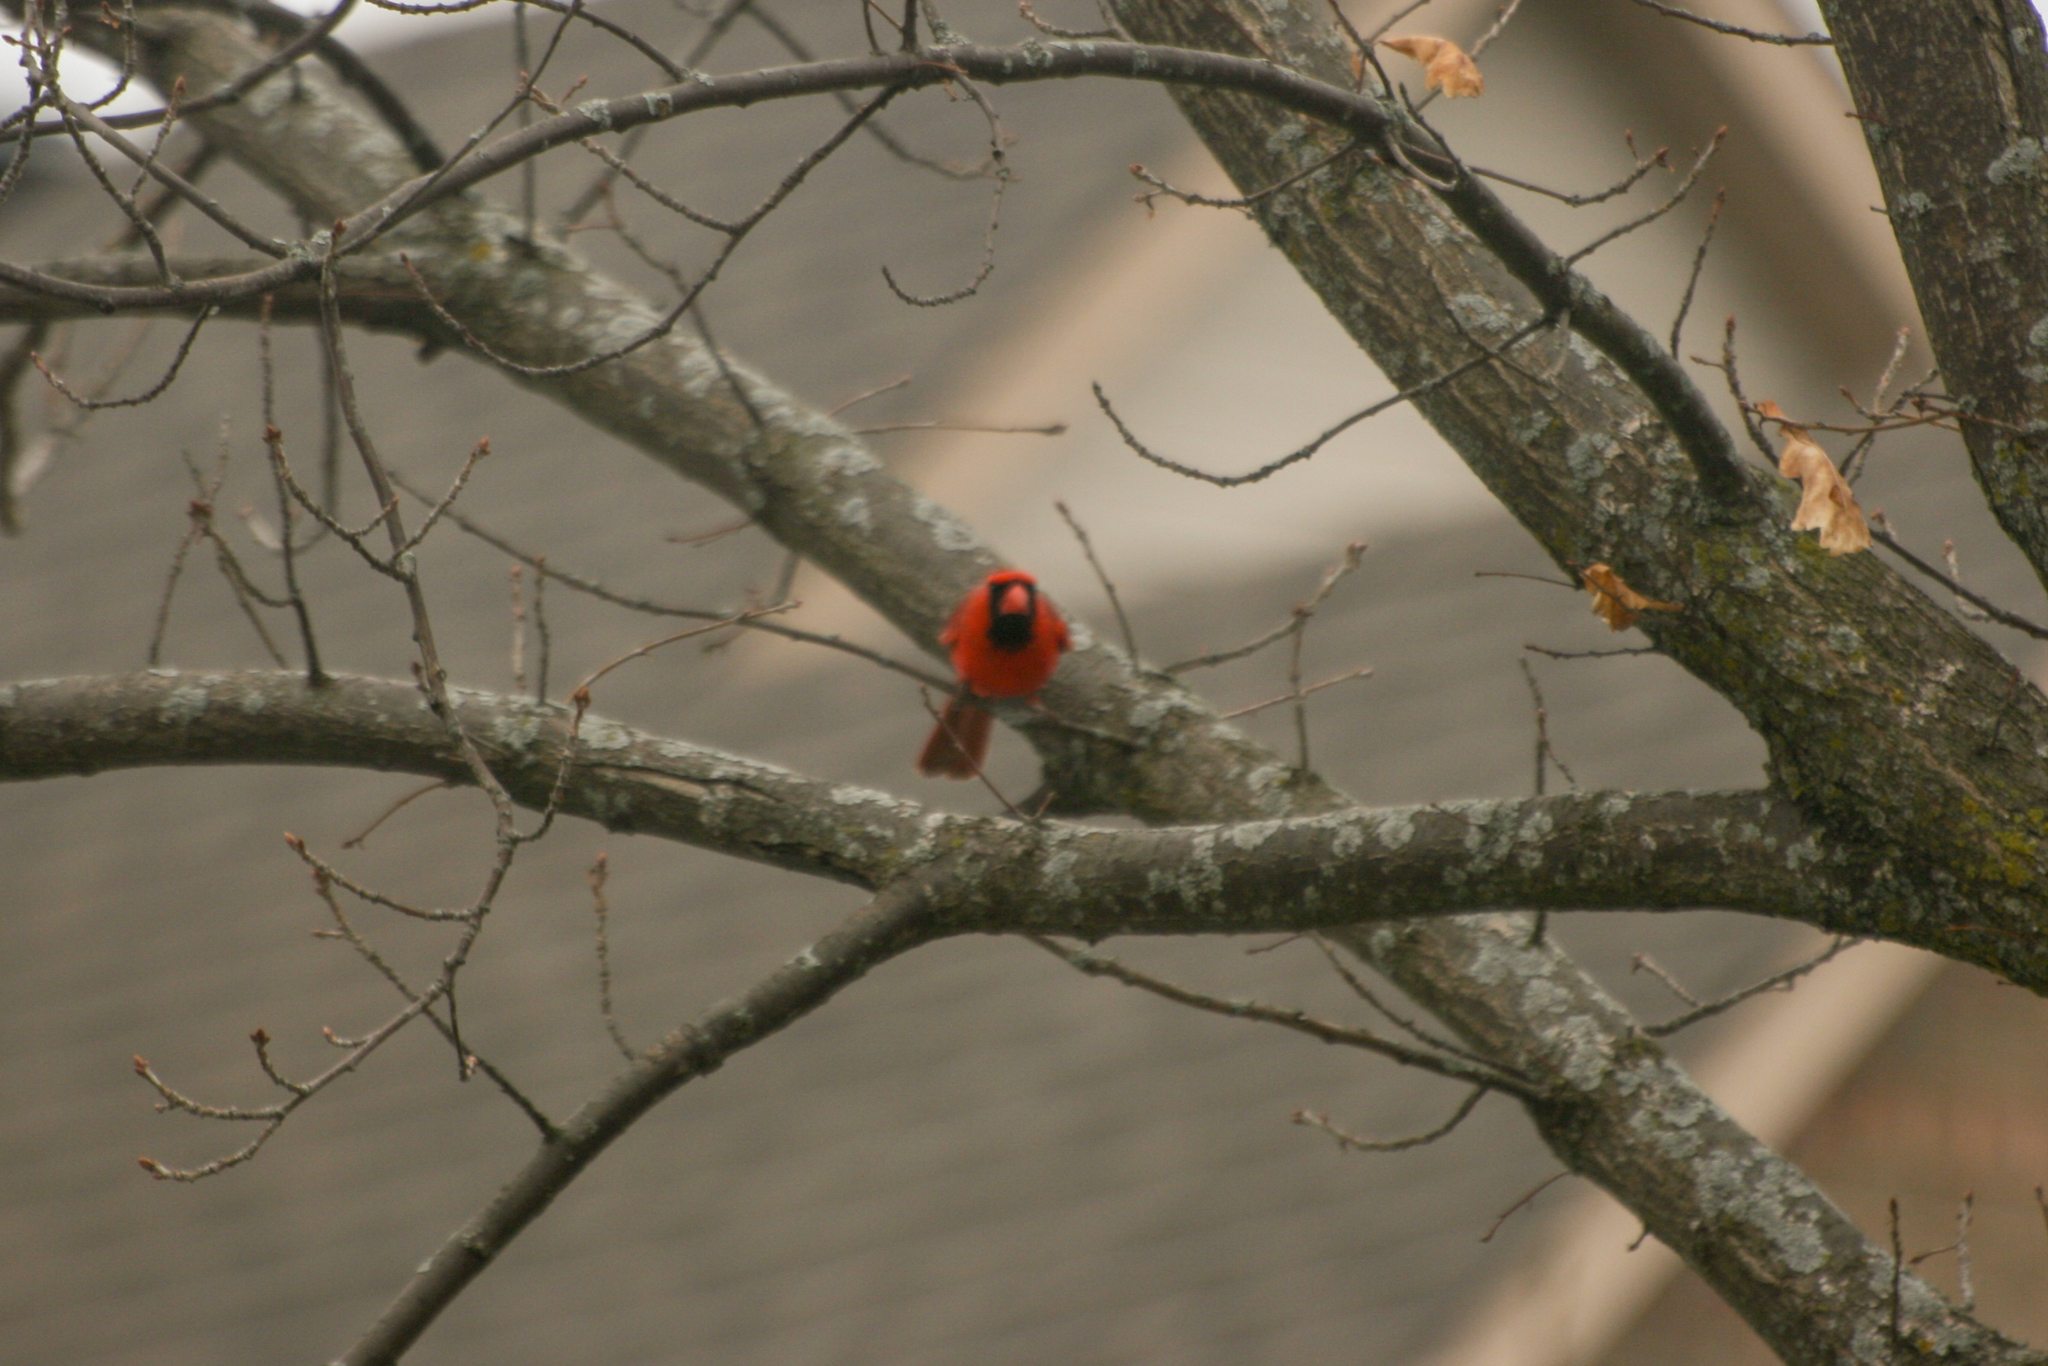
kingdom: Animalia
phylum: Chordata
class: Aves
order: Passeriformes
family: Cardinalidae
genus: Cardinalis
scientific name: Cardinalis cardinalis
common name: Northern cardinal
